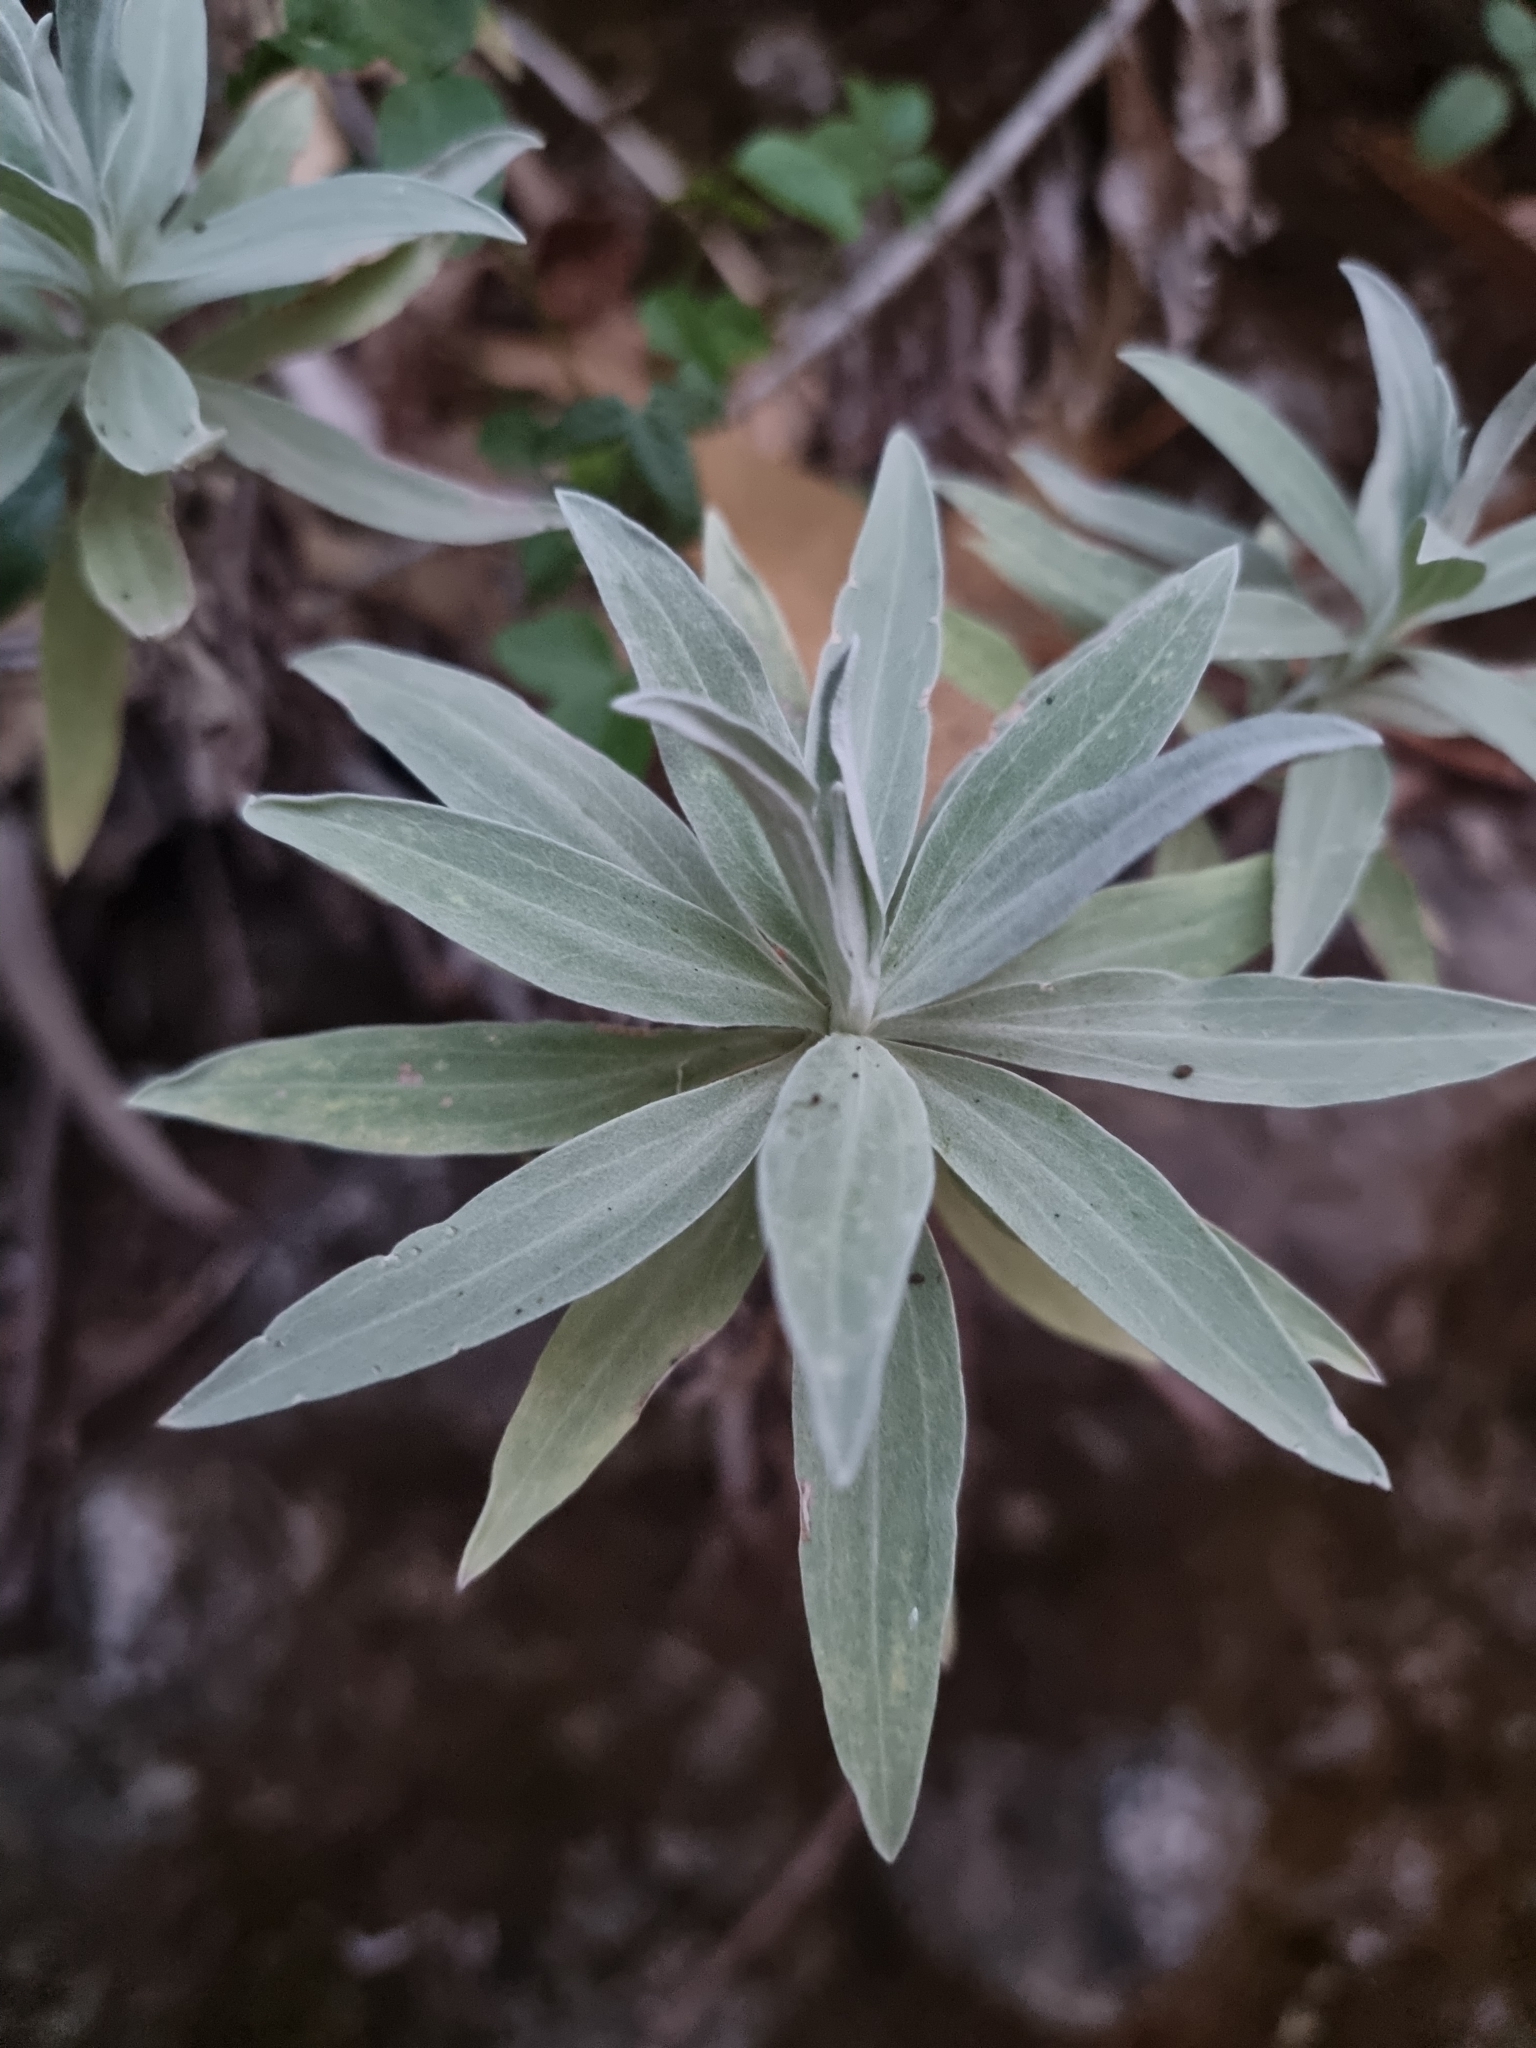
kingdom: Plantae
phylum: Tracheophyta
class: Magnoliopsida
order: Asterales
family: Asteraceae
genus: Helichrysum
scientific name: Helichrysum melaleucum
